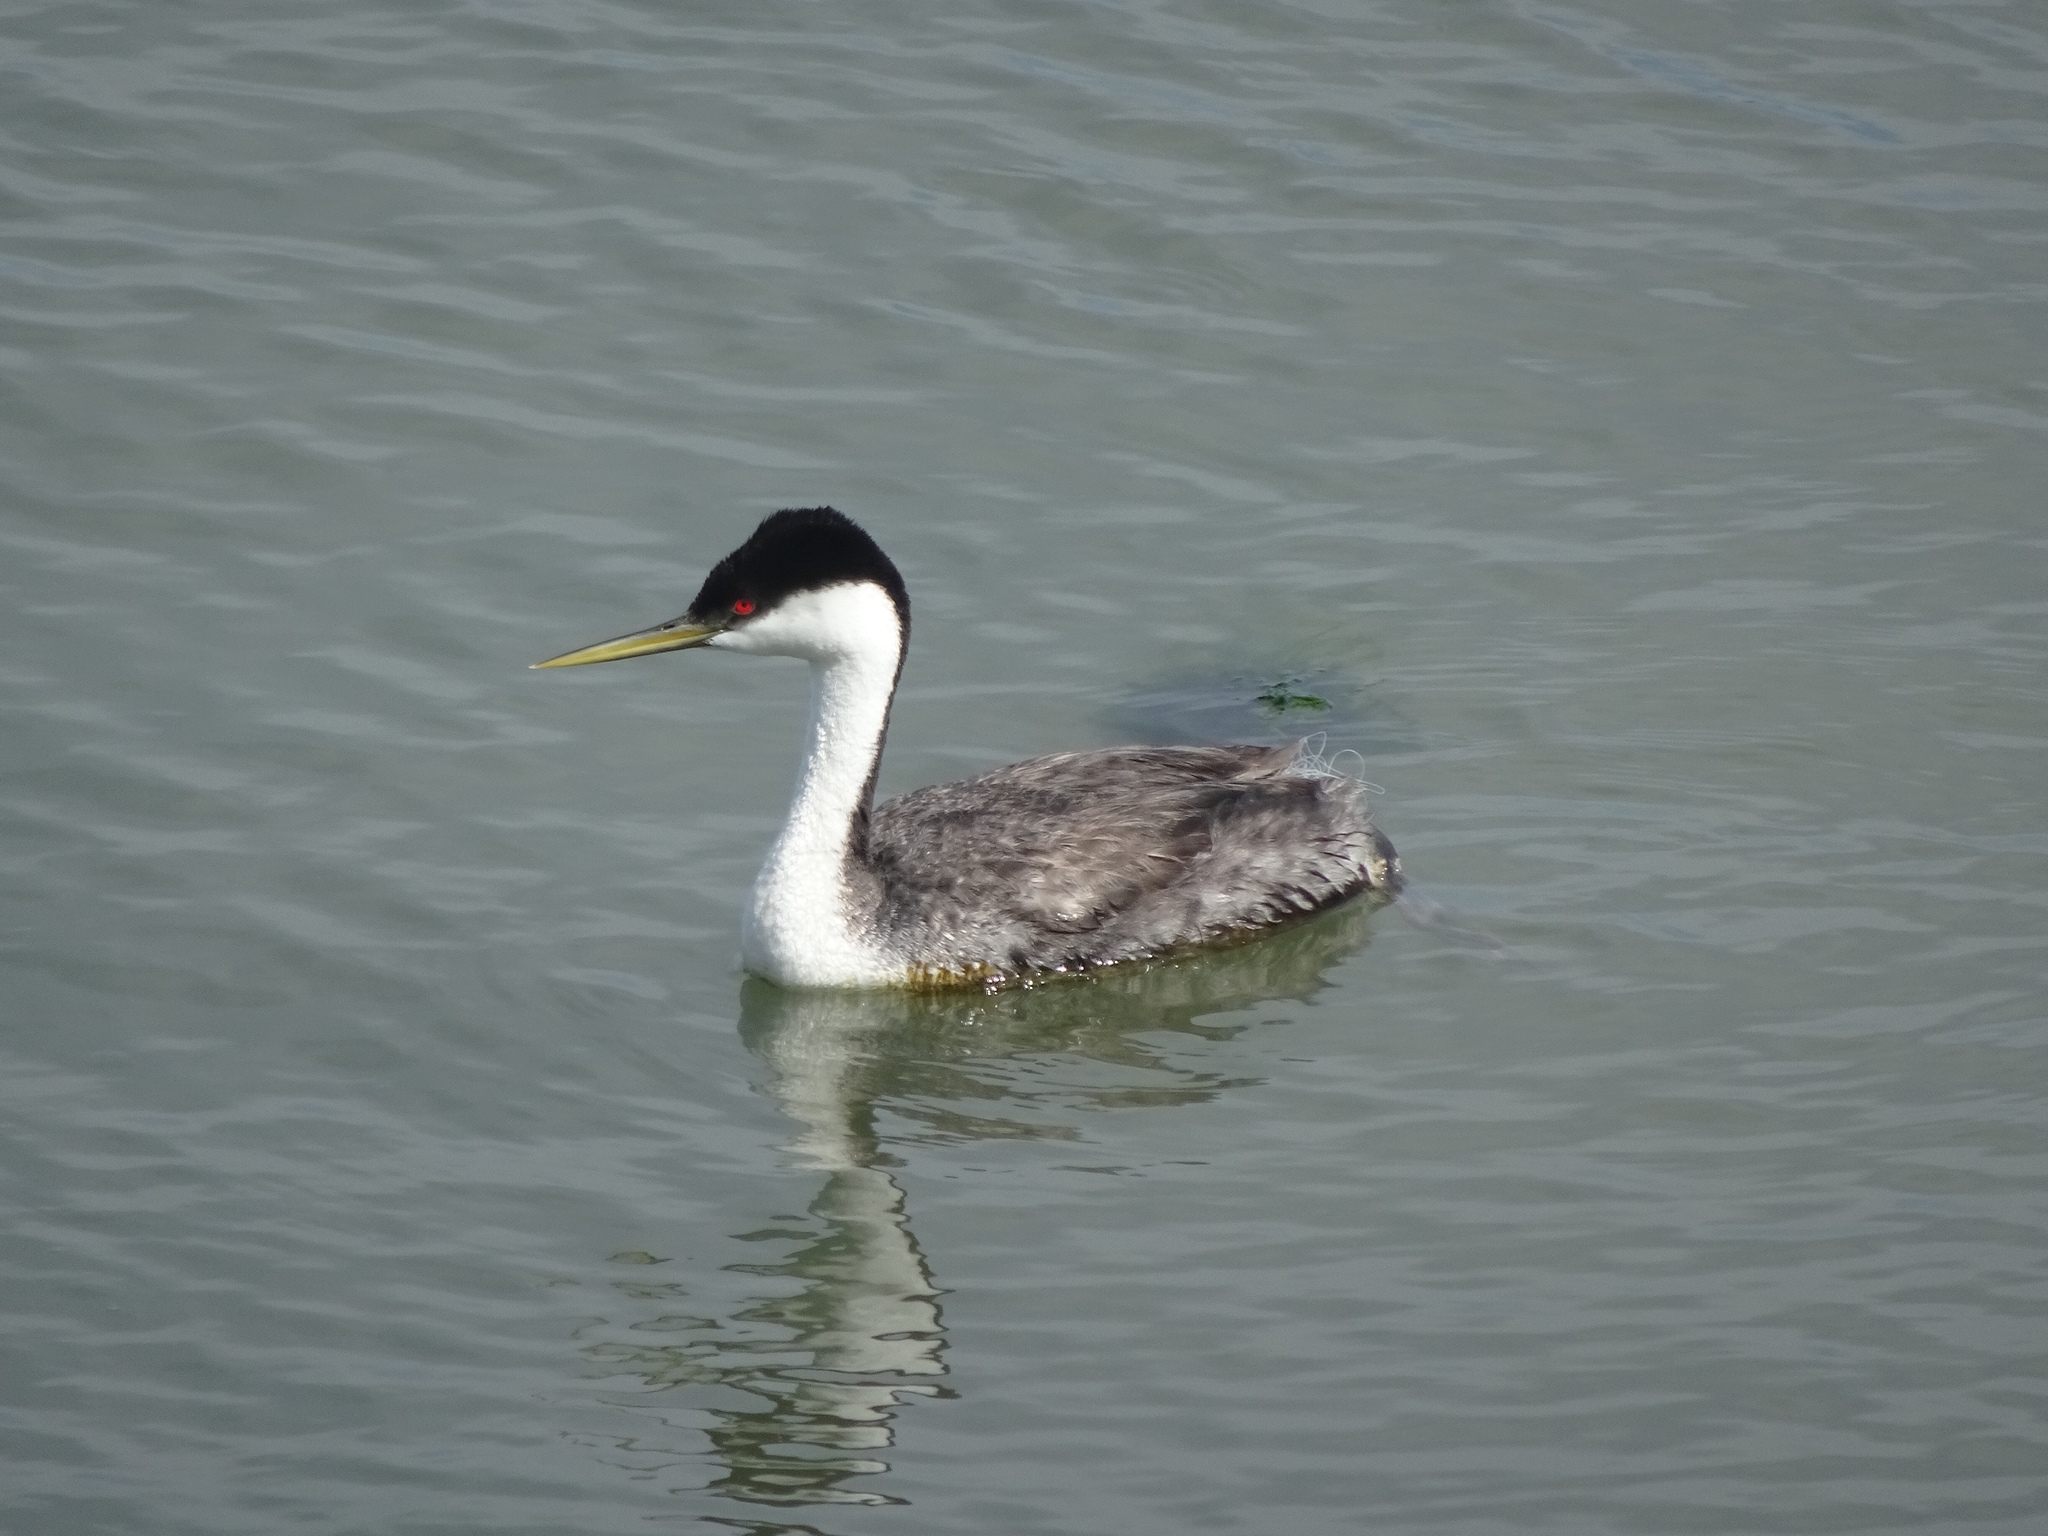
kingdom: Animalia
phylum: Chordata
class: Aves
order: Podicipediformes
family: Podicipedidae
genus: Aechmophorus
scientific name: Aechmophorus occidentalis
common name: Western grebe
